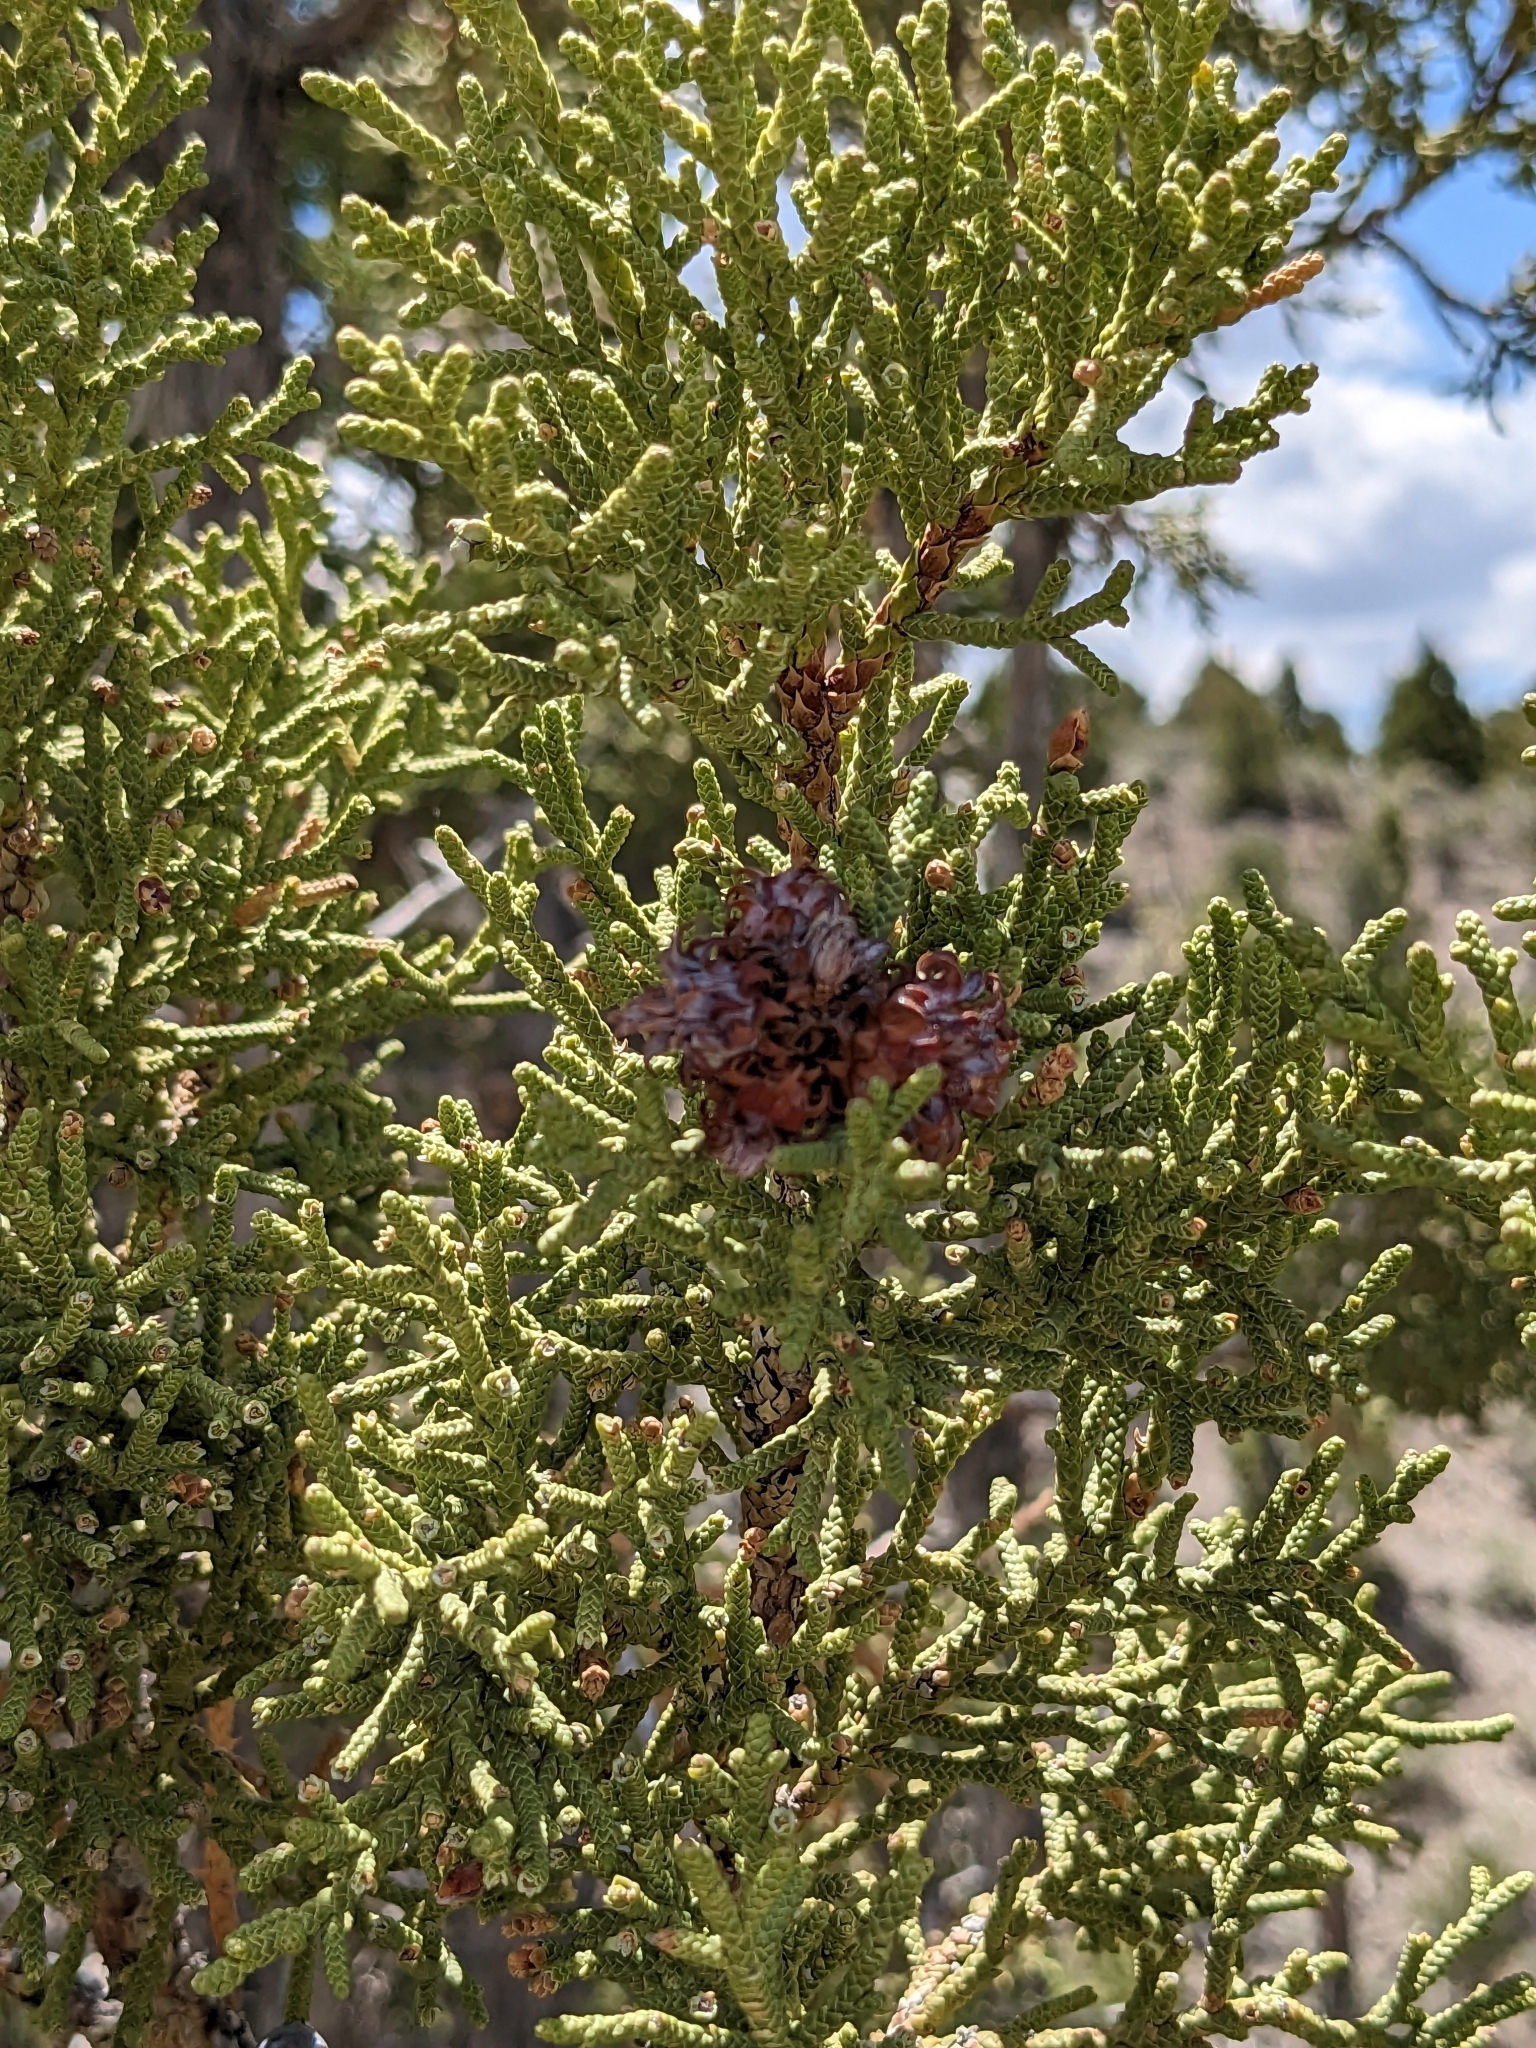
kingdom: Plantae
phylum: Tracheophyta
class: Pinopsida
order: Pinales
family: Cupressaceae
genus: Juniperus
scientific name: Juniperus osteosperma
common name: Utah juniper
